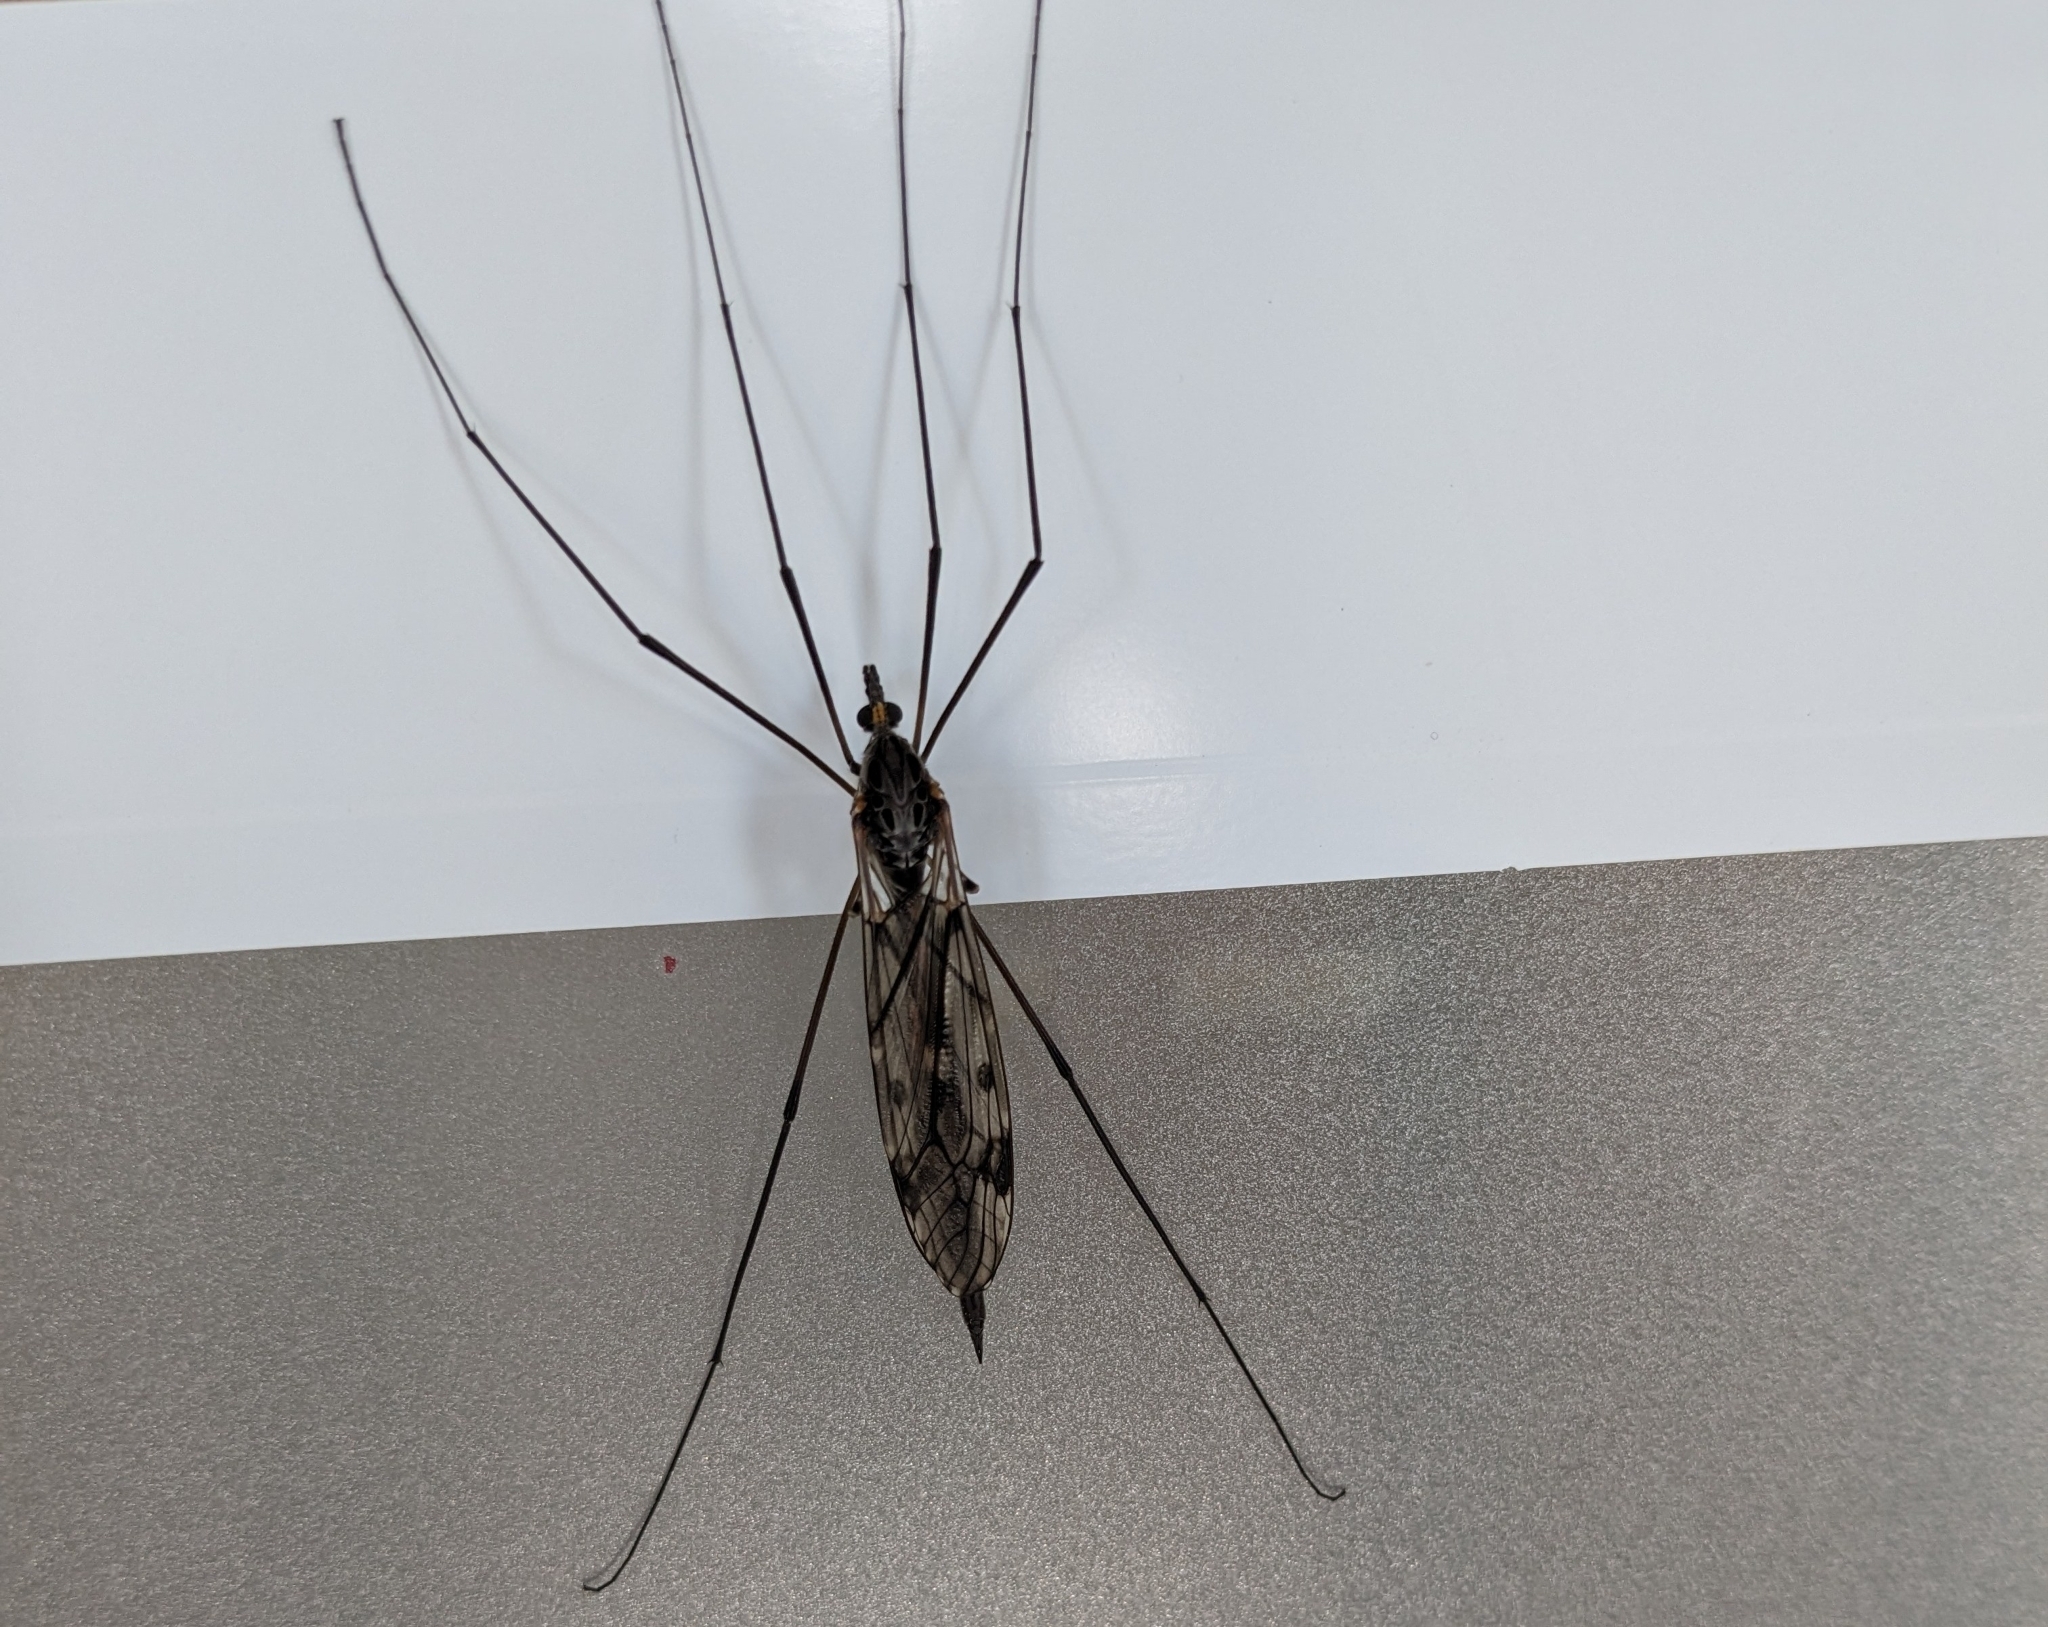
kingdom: Animalia
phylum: Arthropoda
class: Insecta
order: Diptera
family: Tipulidae
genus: Tipula
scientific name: Tipula metacomet
